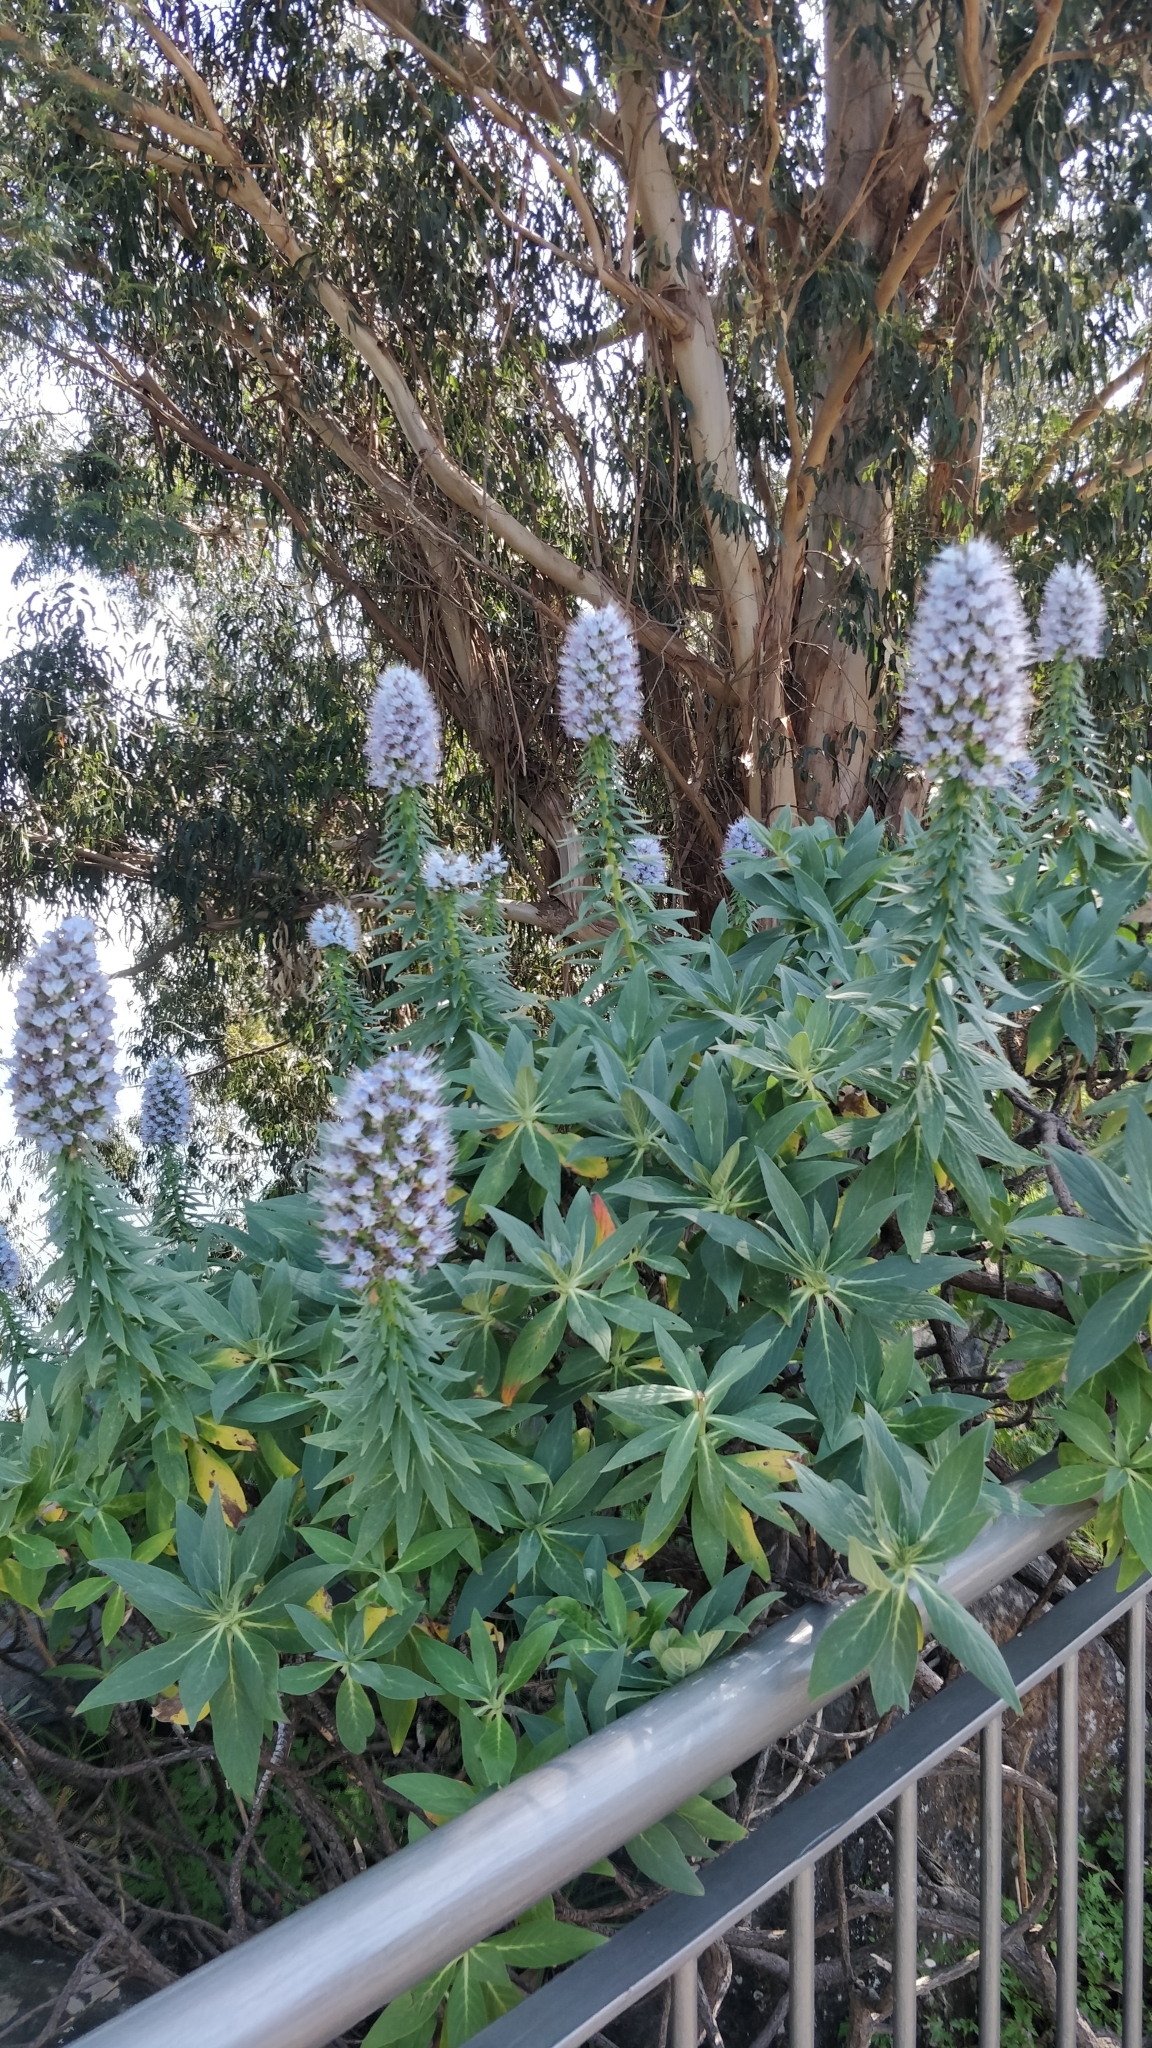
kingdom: Plantae
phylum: Tracheophyta
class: Magnoliopsida
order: Boraginales
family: Boraginaceae
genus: Echium
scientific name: Echium nervosum
